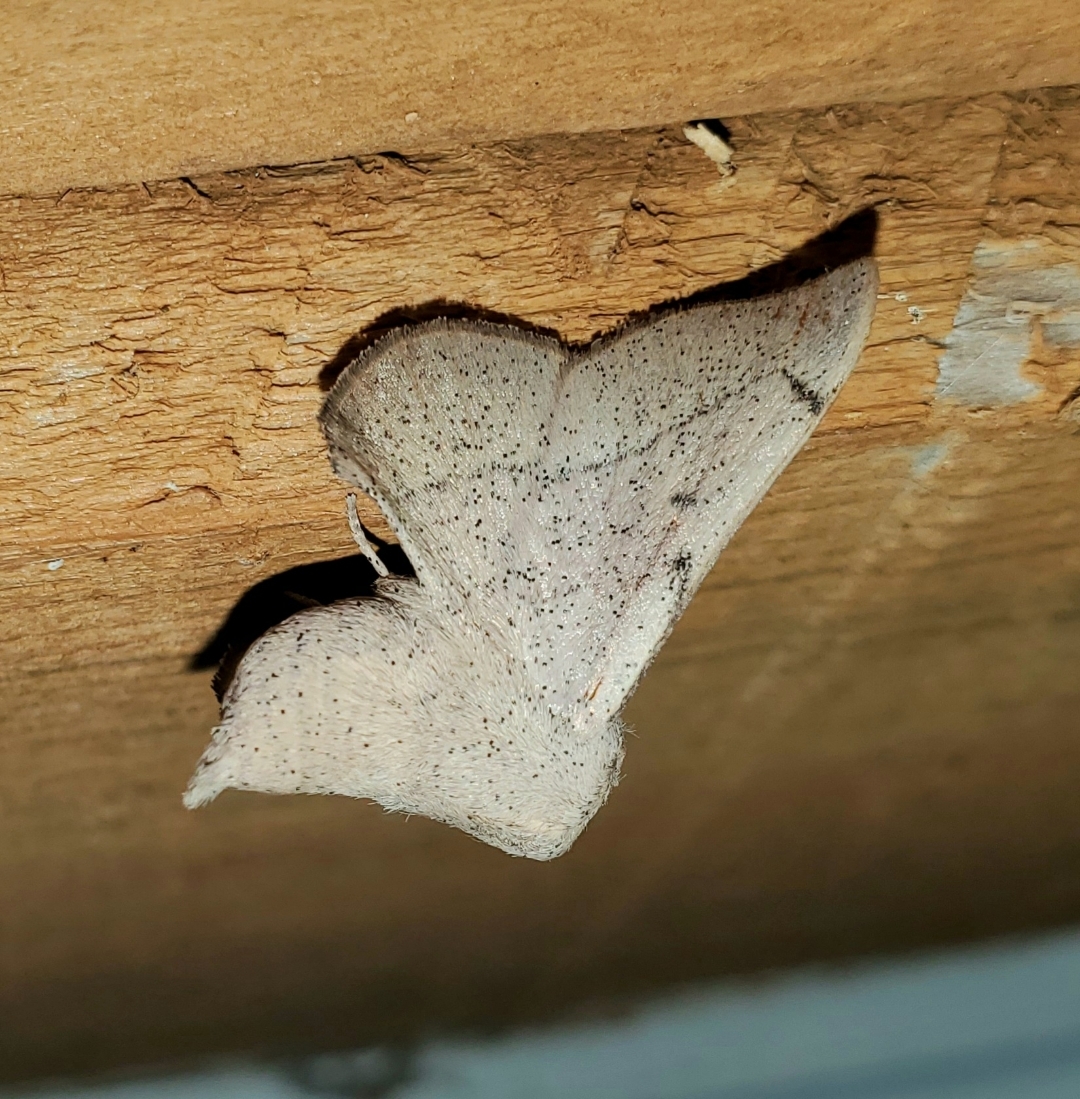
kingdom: Animalia
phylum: Arthropoda
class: Insecta
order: Lepidoptera
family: Mimallonidae
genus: Cicinnus
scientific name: Cicinnus melsheimeri
